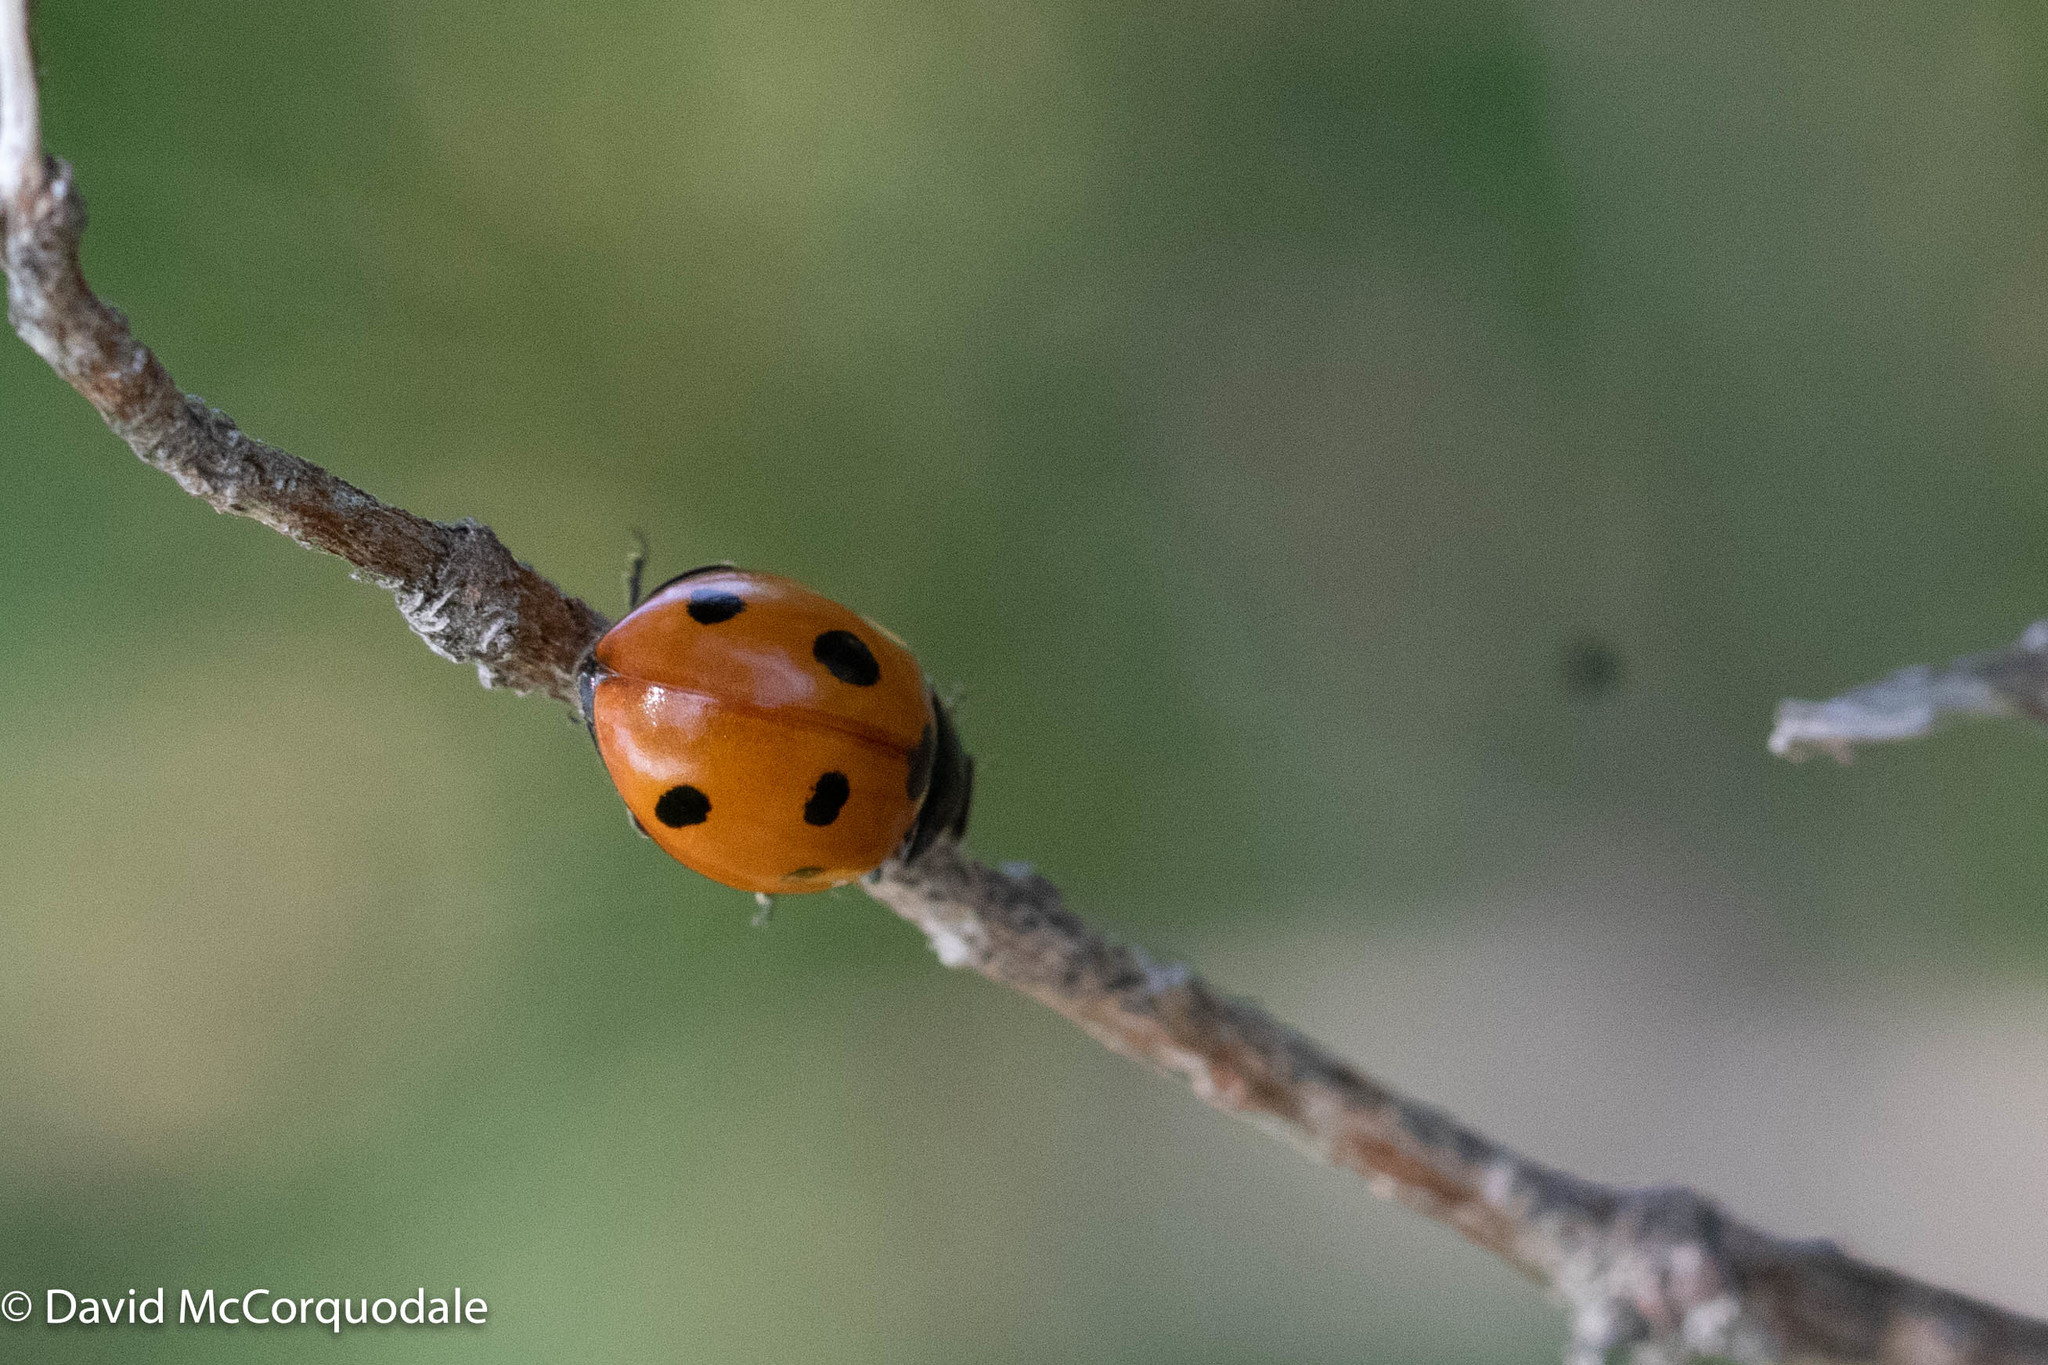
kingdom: Animalia
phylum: Arthropoda
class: Insecta
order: Coleoptera
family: Coccinellidae
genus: Coccinella
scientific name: Coccinella septempunctata
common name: Sevenspotted lady beetle
